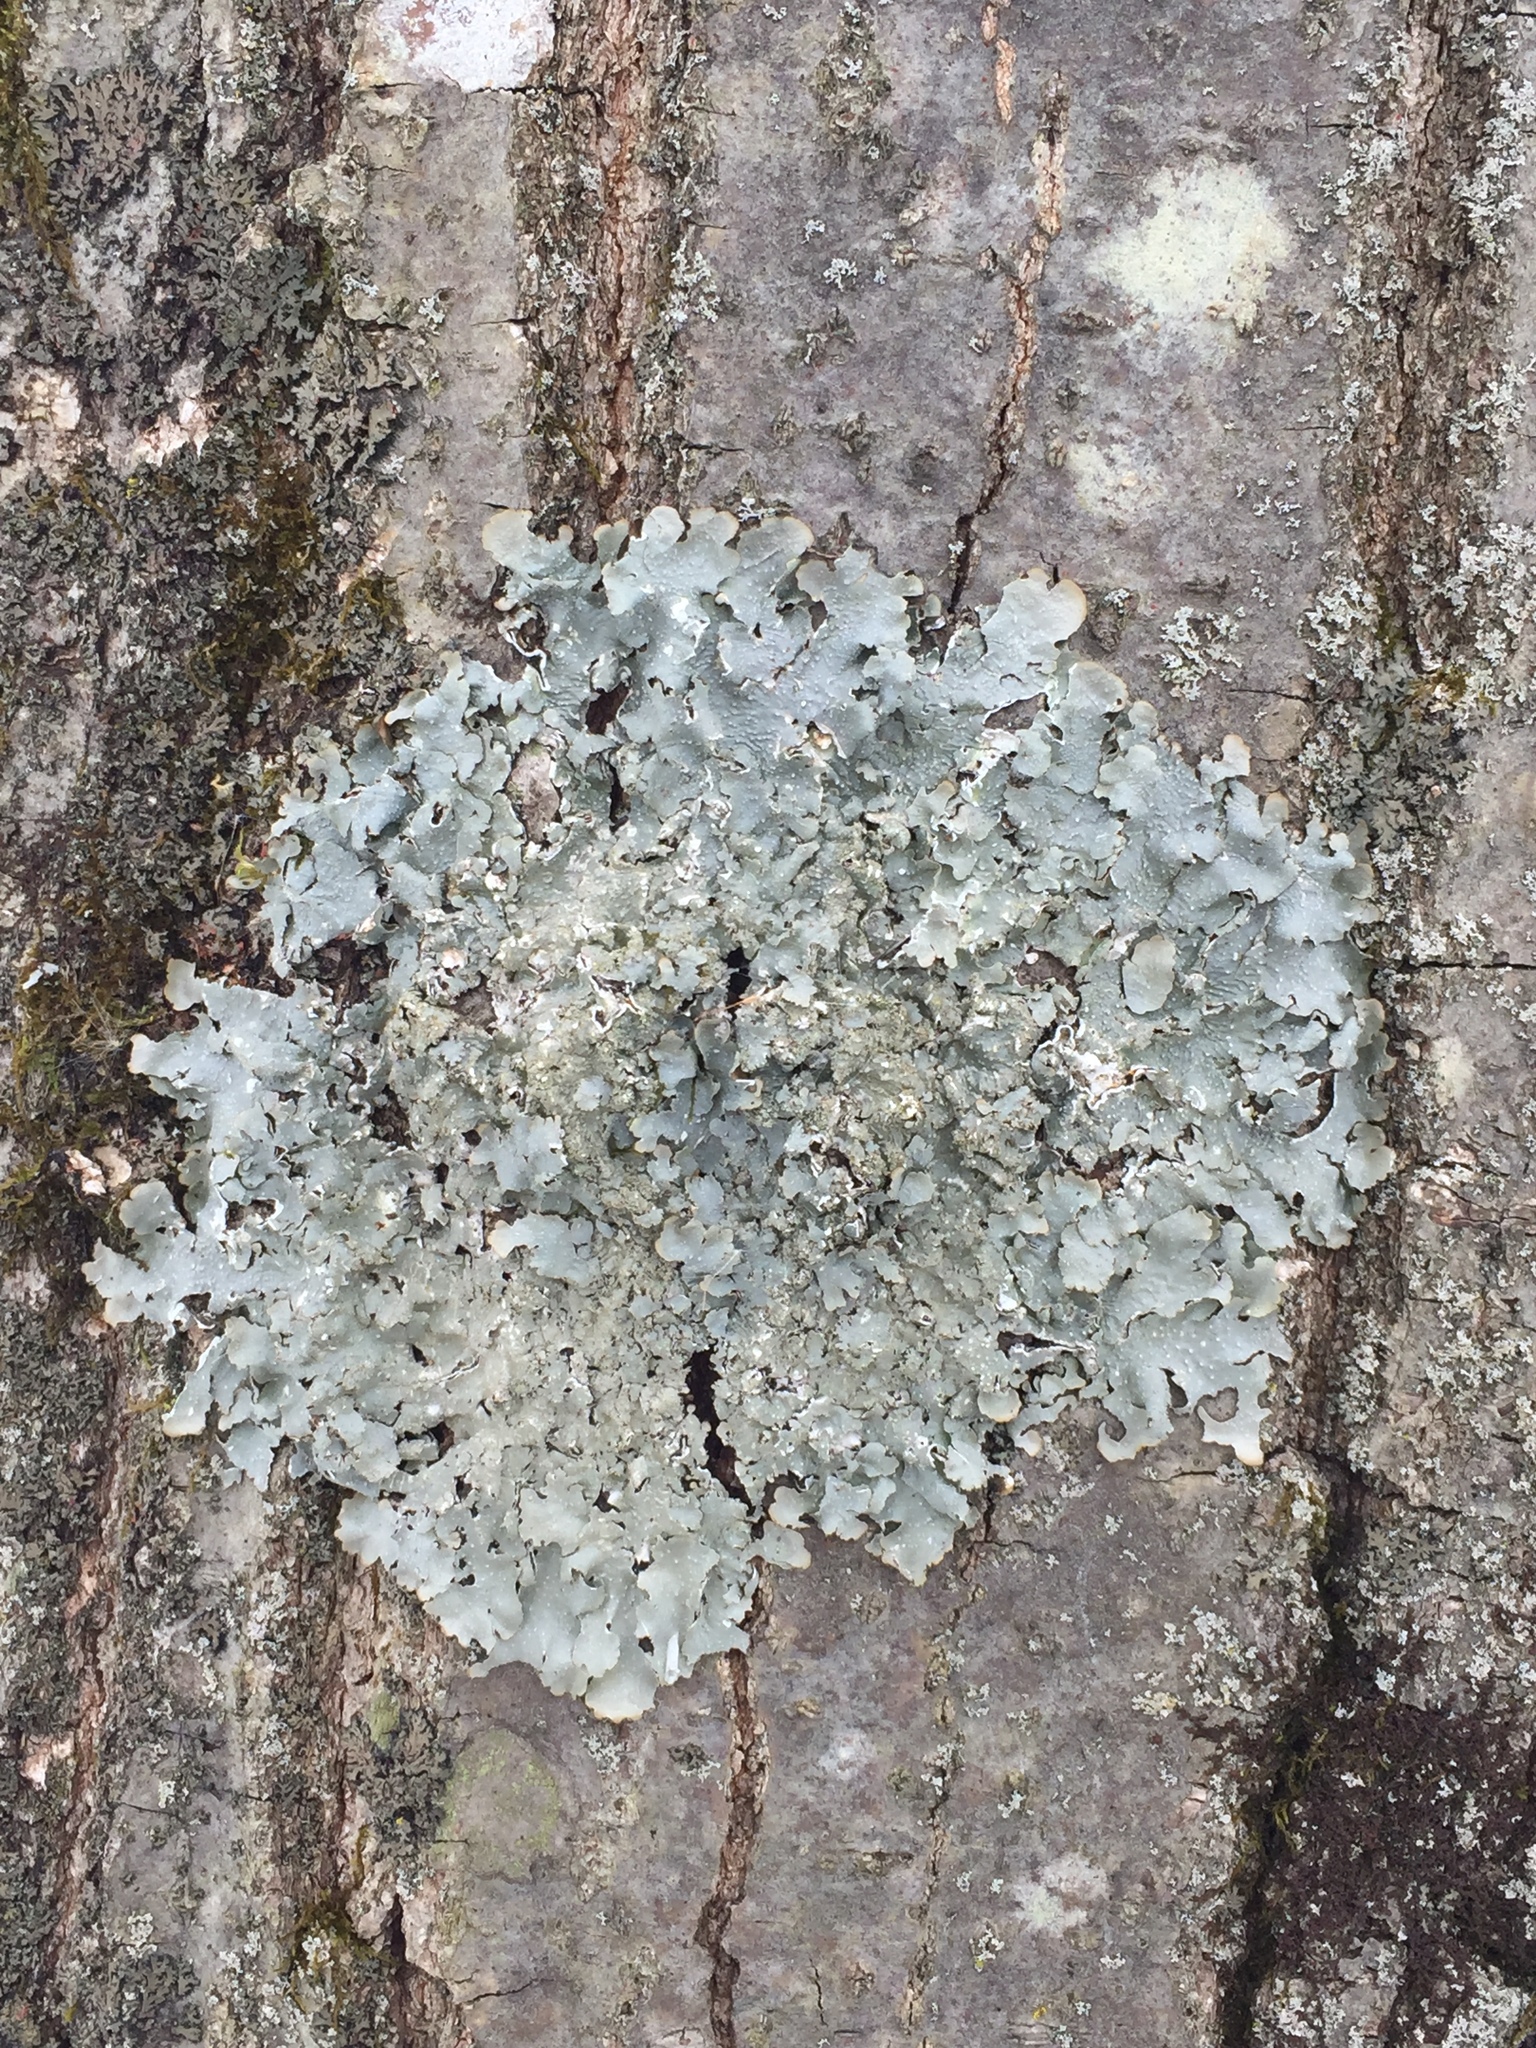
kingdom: Fungi
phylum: Ascomycota
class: Lecanoromycetes
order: Lecanorales
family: Parmeliaceae
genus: Punctelia
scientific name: Punctelia rudecta
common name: Rough speckled shield lichen
